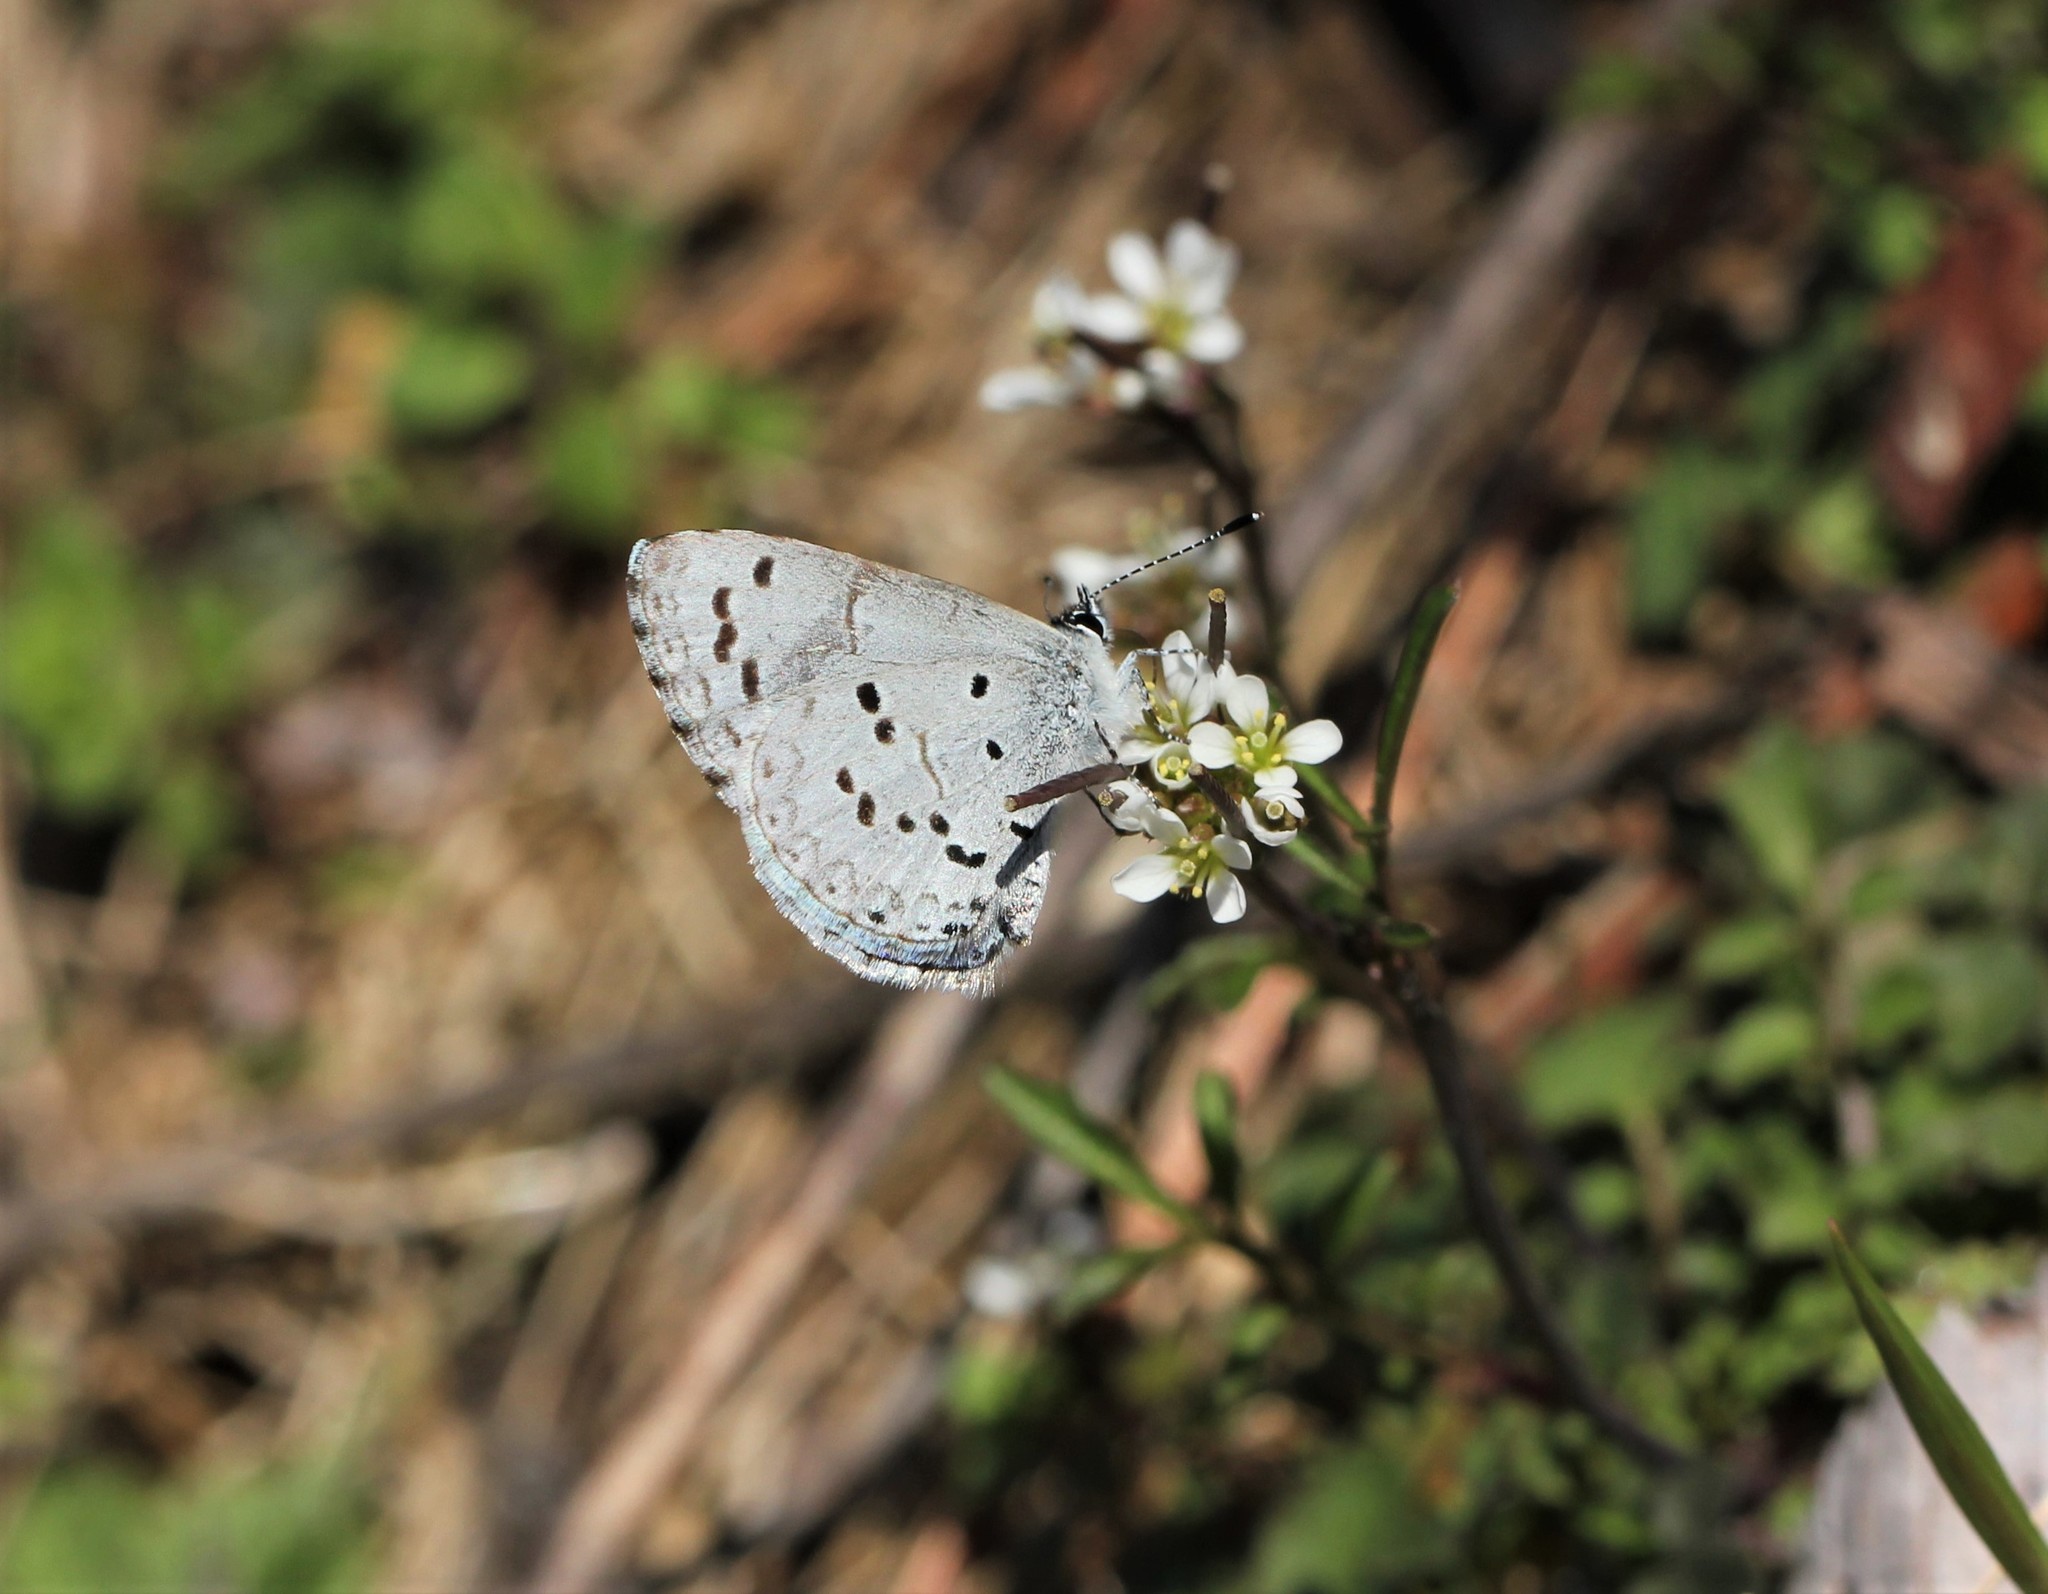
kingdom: Animalia
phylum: Arthropoda
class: Insecta
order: Lepidoptera
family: Lycaenidae
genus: Cyaniris
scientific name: Cyaniris neglecta
